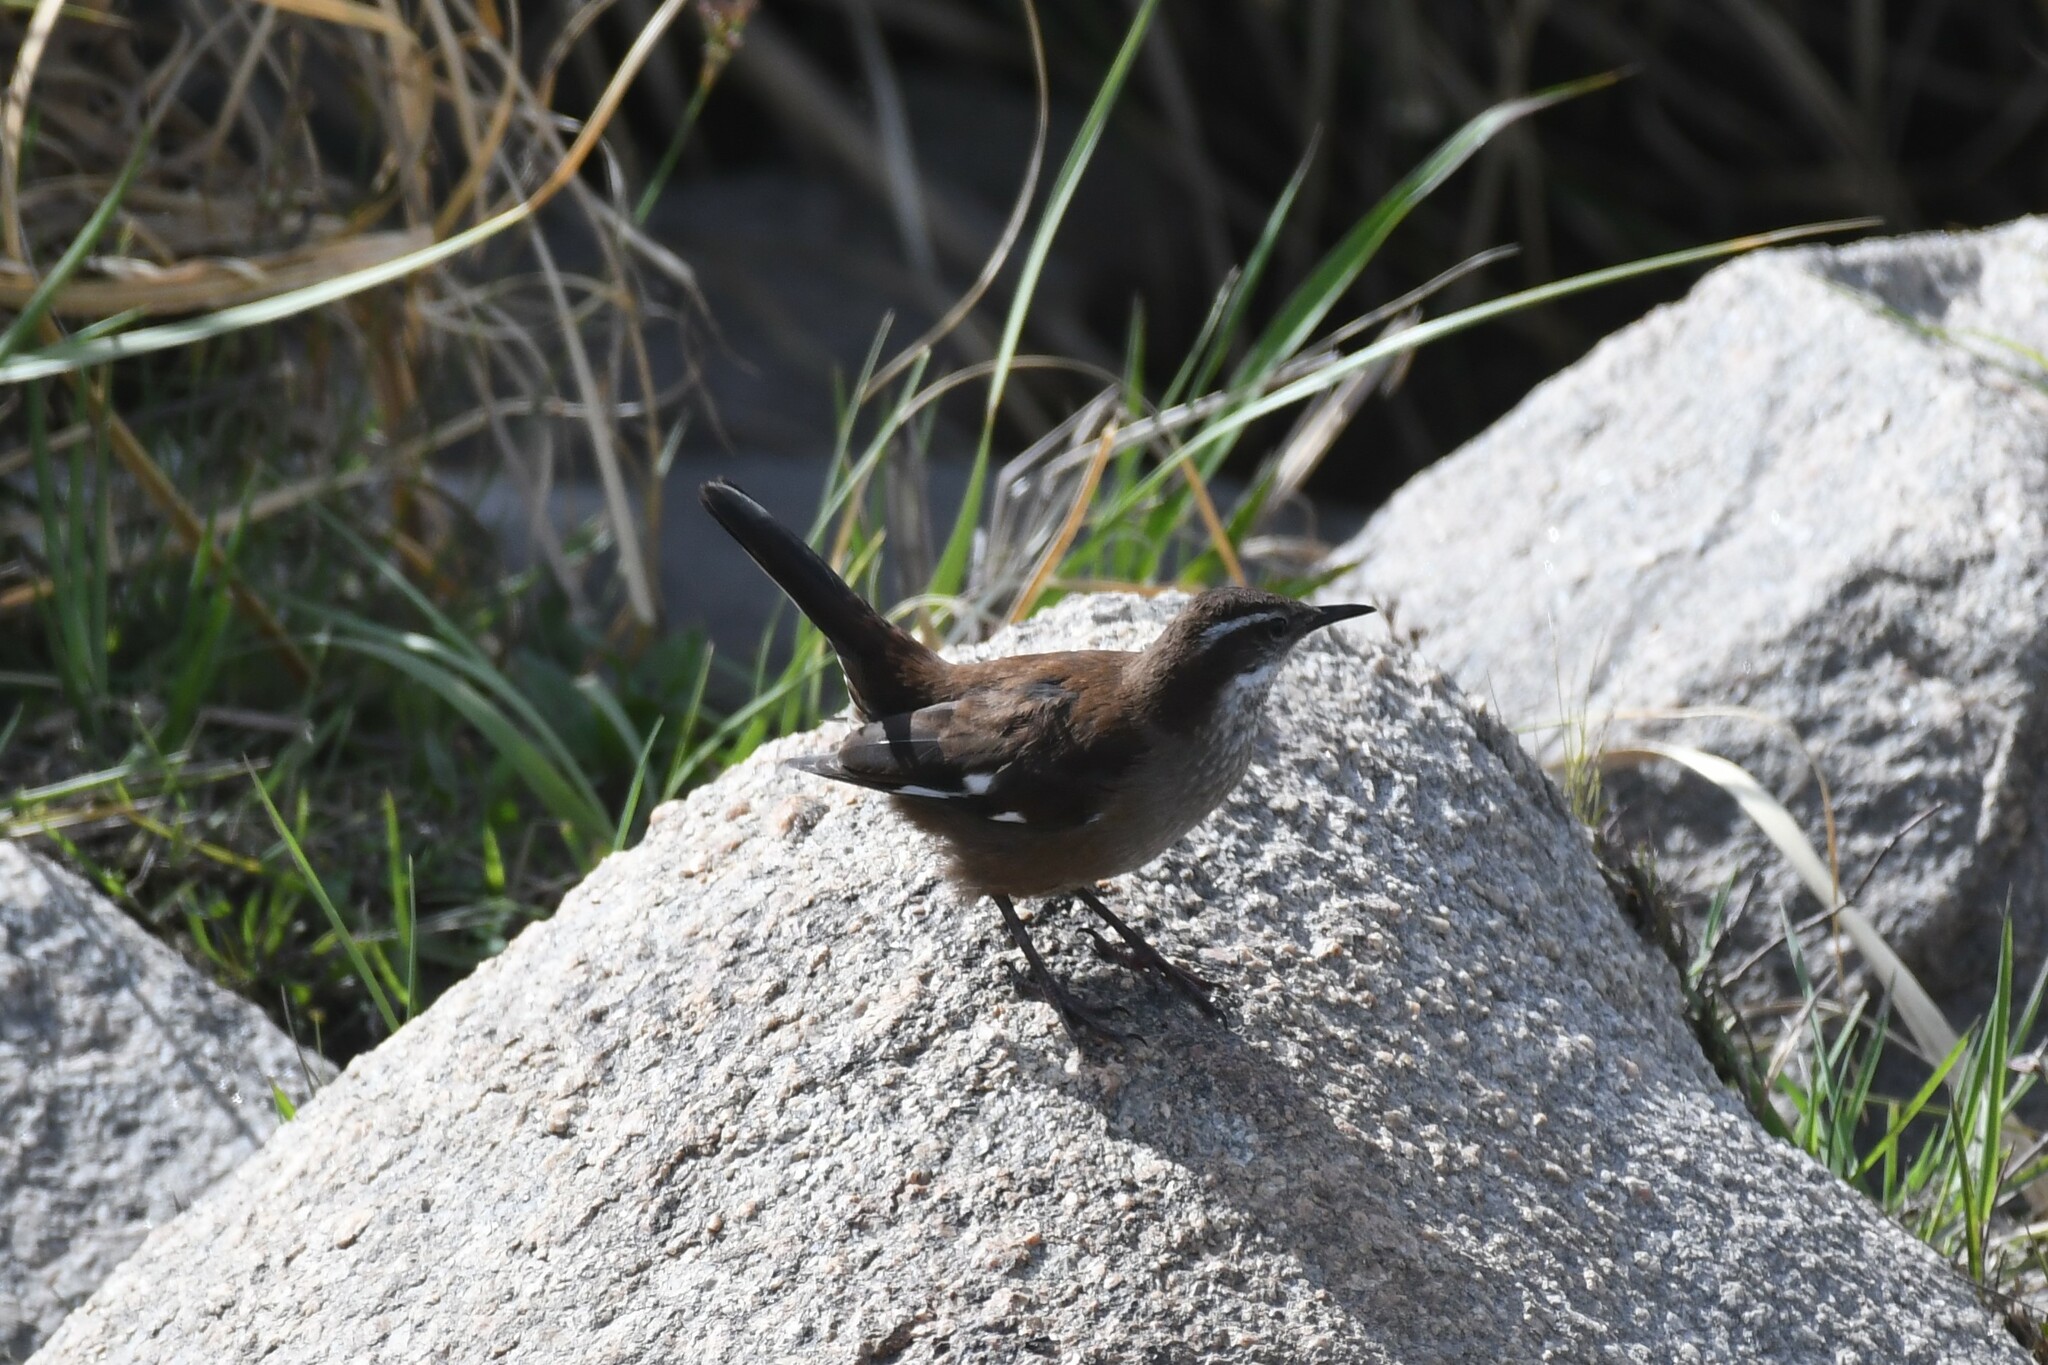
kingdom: Animalia
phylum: Chordata
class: Aves
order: Passeriformes
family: Furnariidae
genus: Cinclodes
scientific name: Cinclodes atacamensis
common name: White-winged cinclodes
